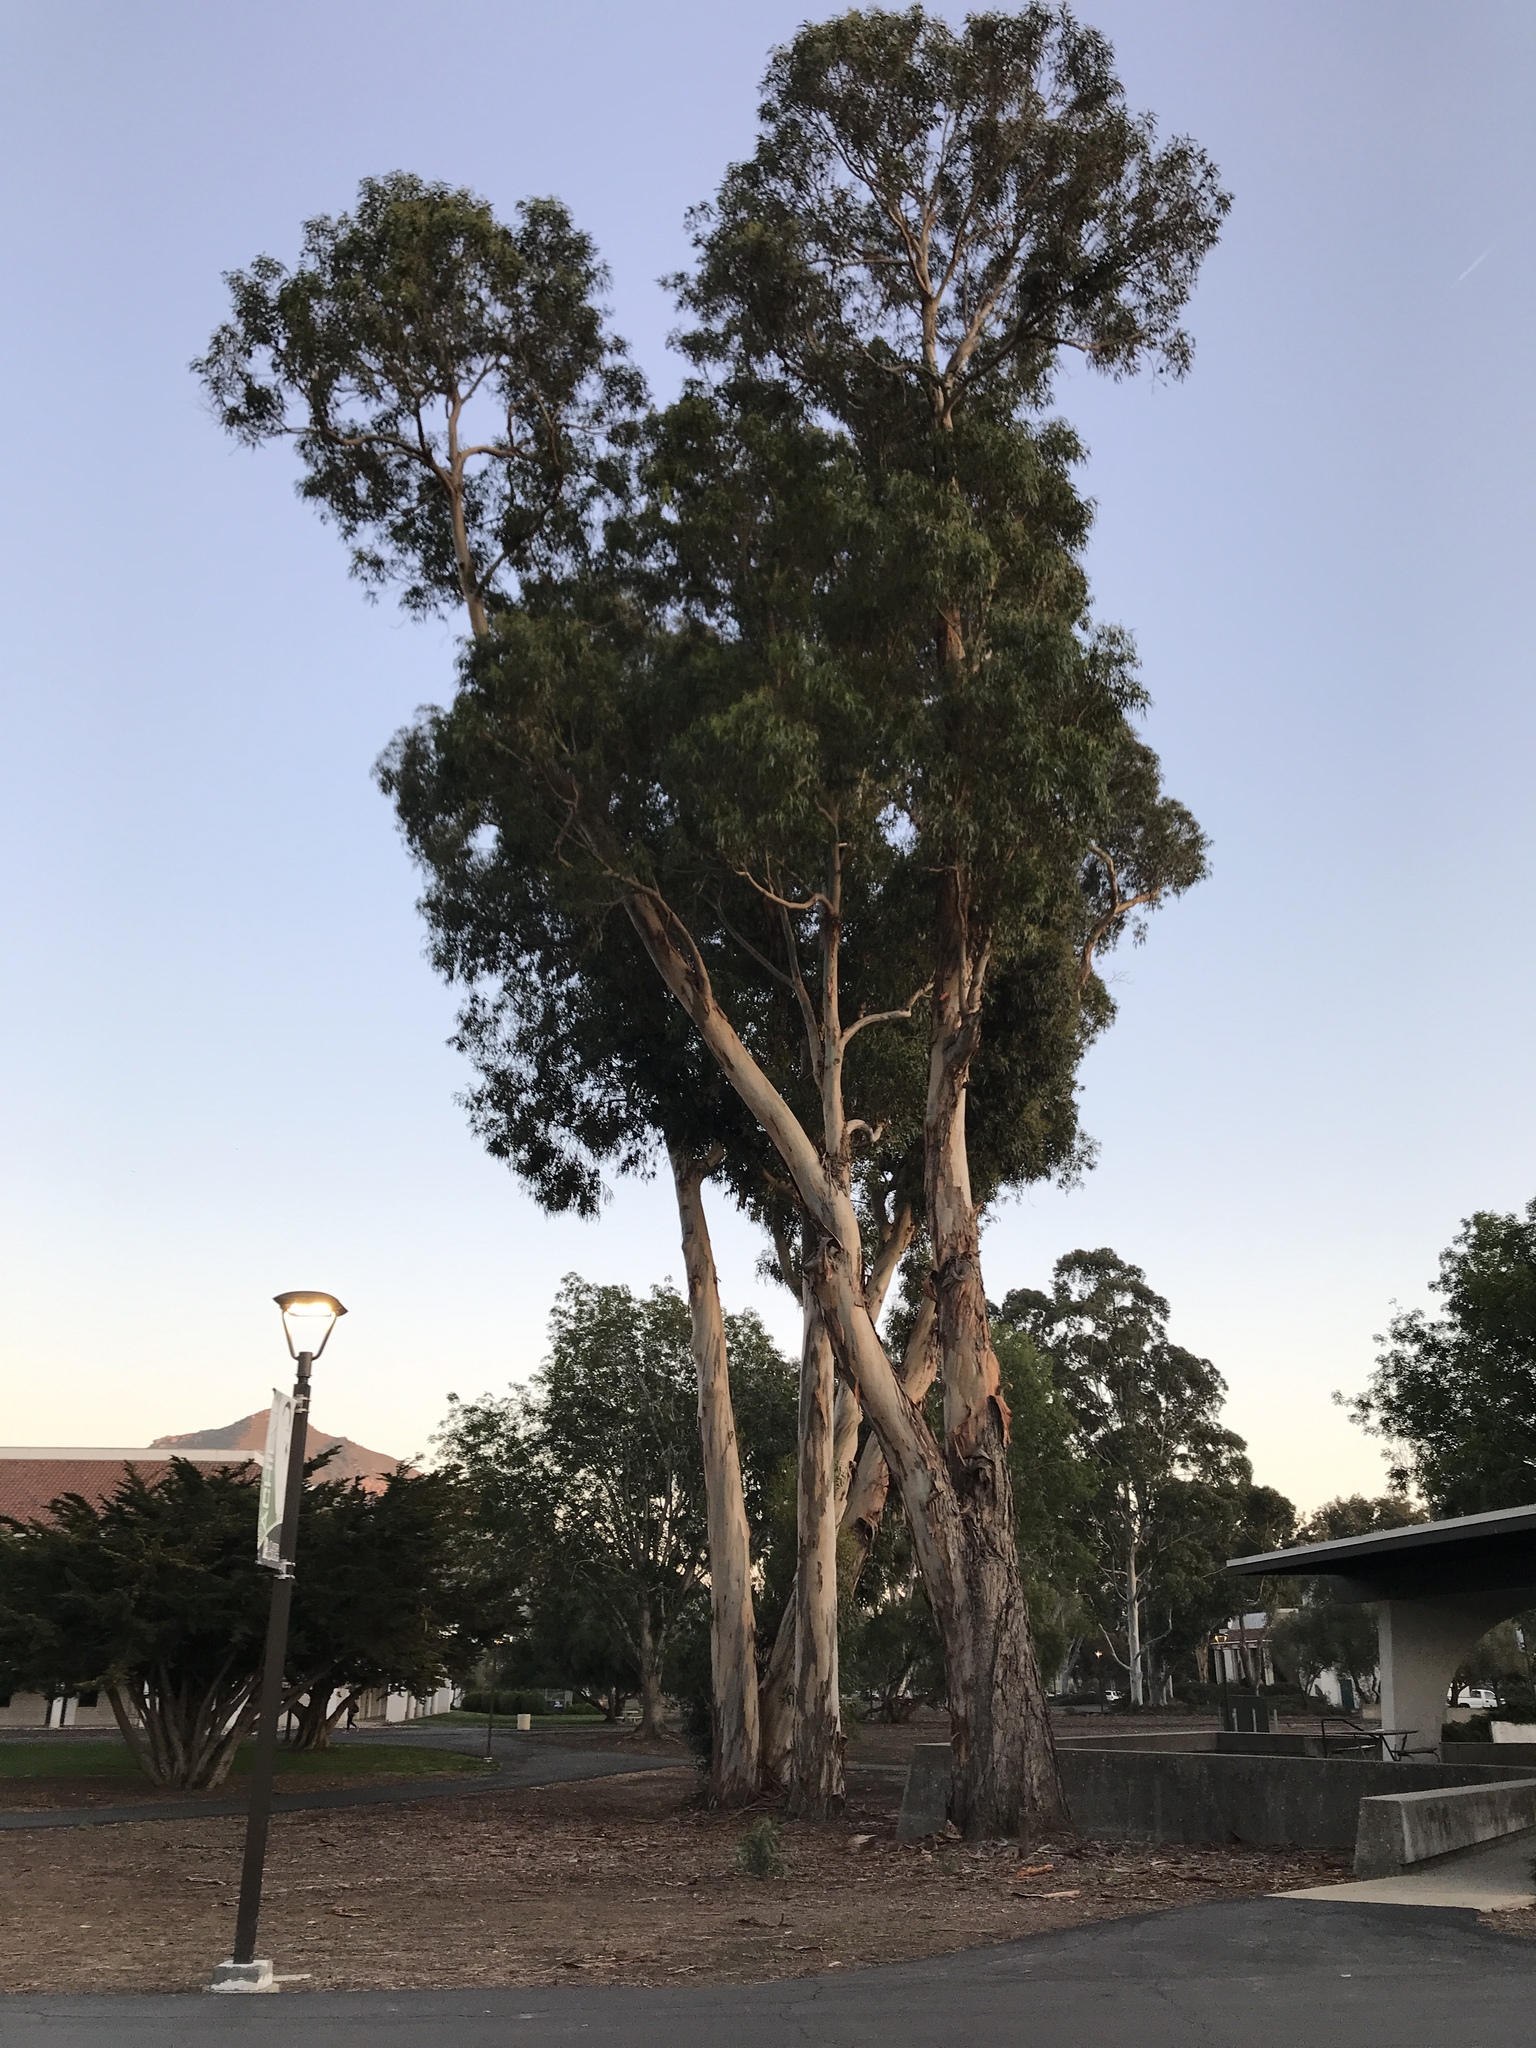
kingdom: Plantae
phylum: Tracheophyta
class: Magnoliopsida
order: Myrtales
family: Myrtaceae
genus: Eucalyptus
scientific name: Eucalyptus globulus
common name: Southern blue-gum
